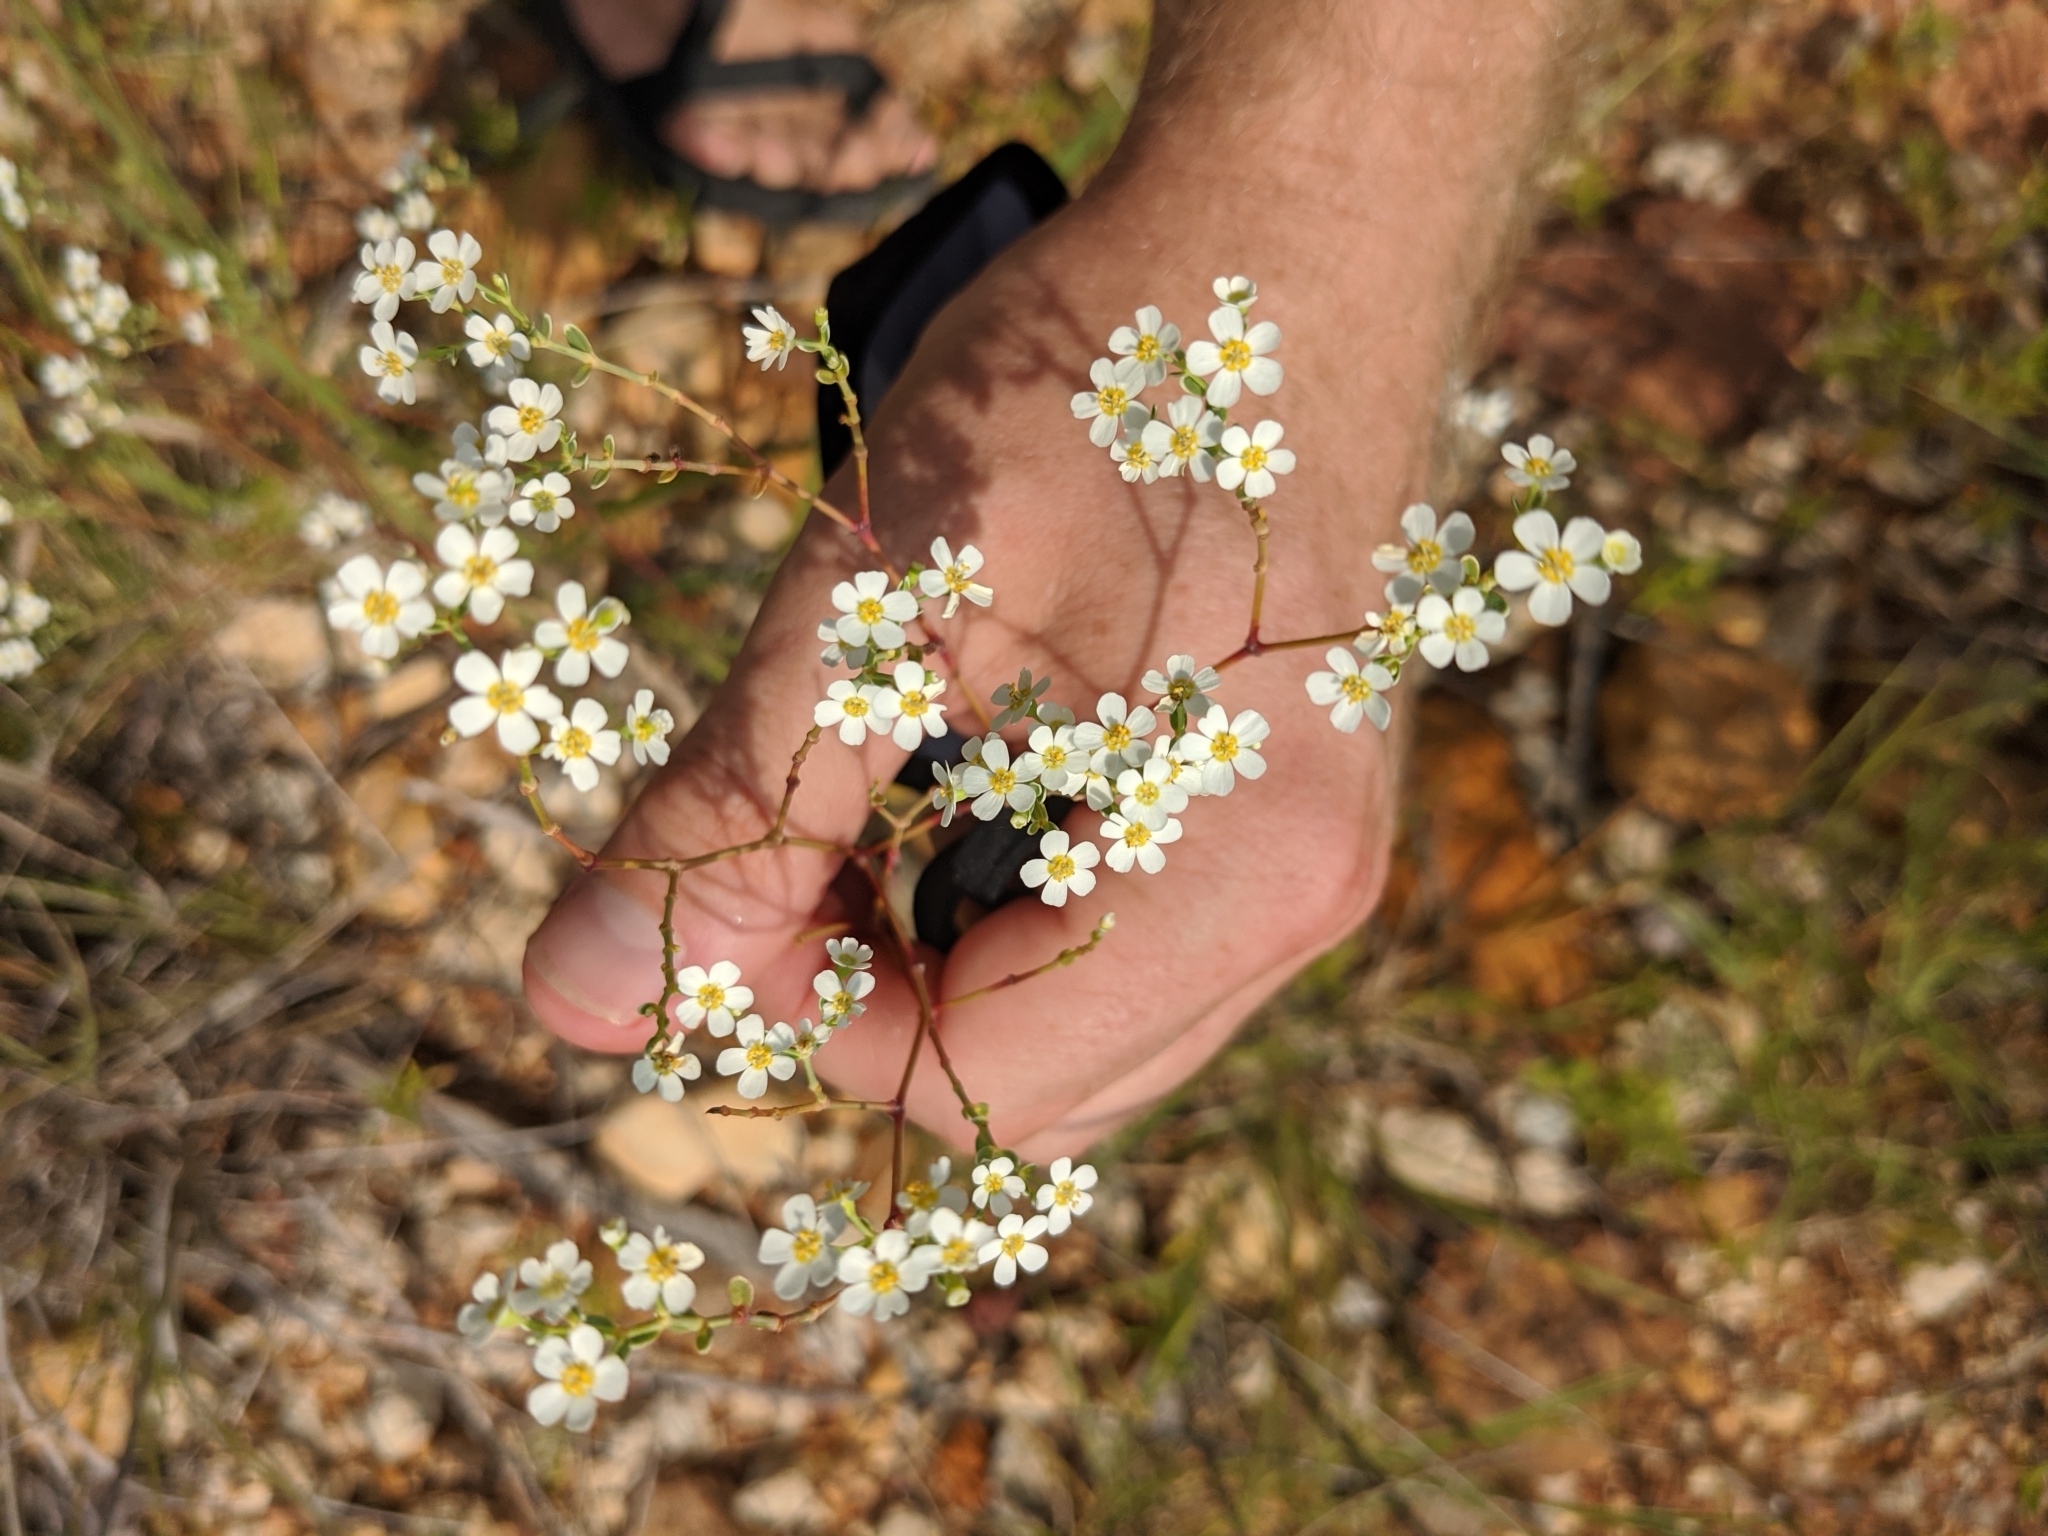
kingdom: Plantae
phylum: Tracheophyta
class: Magnoliopsida
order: Malpighiales
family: Euphorbiaceae
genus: Euphorbia
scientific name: Euphorbia corollata
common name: Flowering spurge
